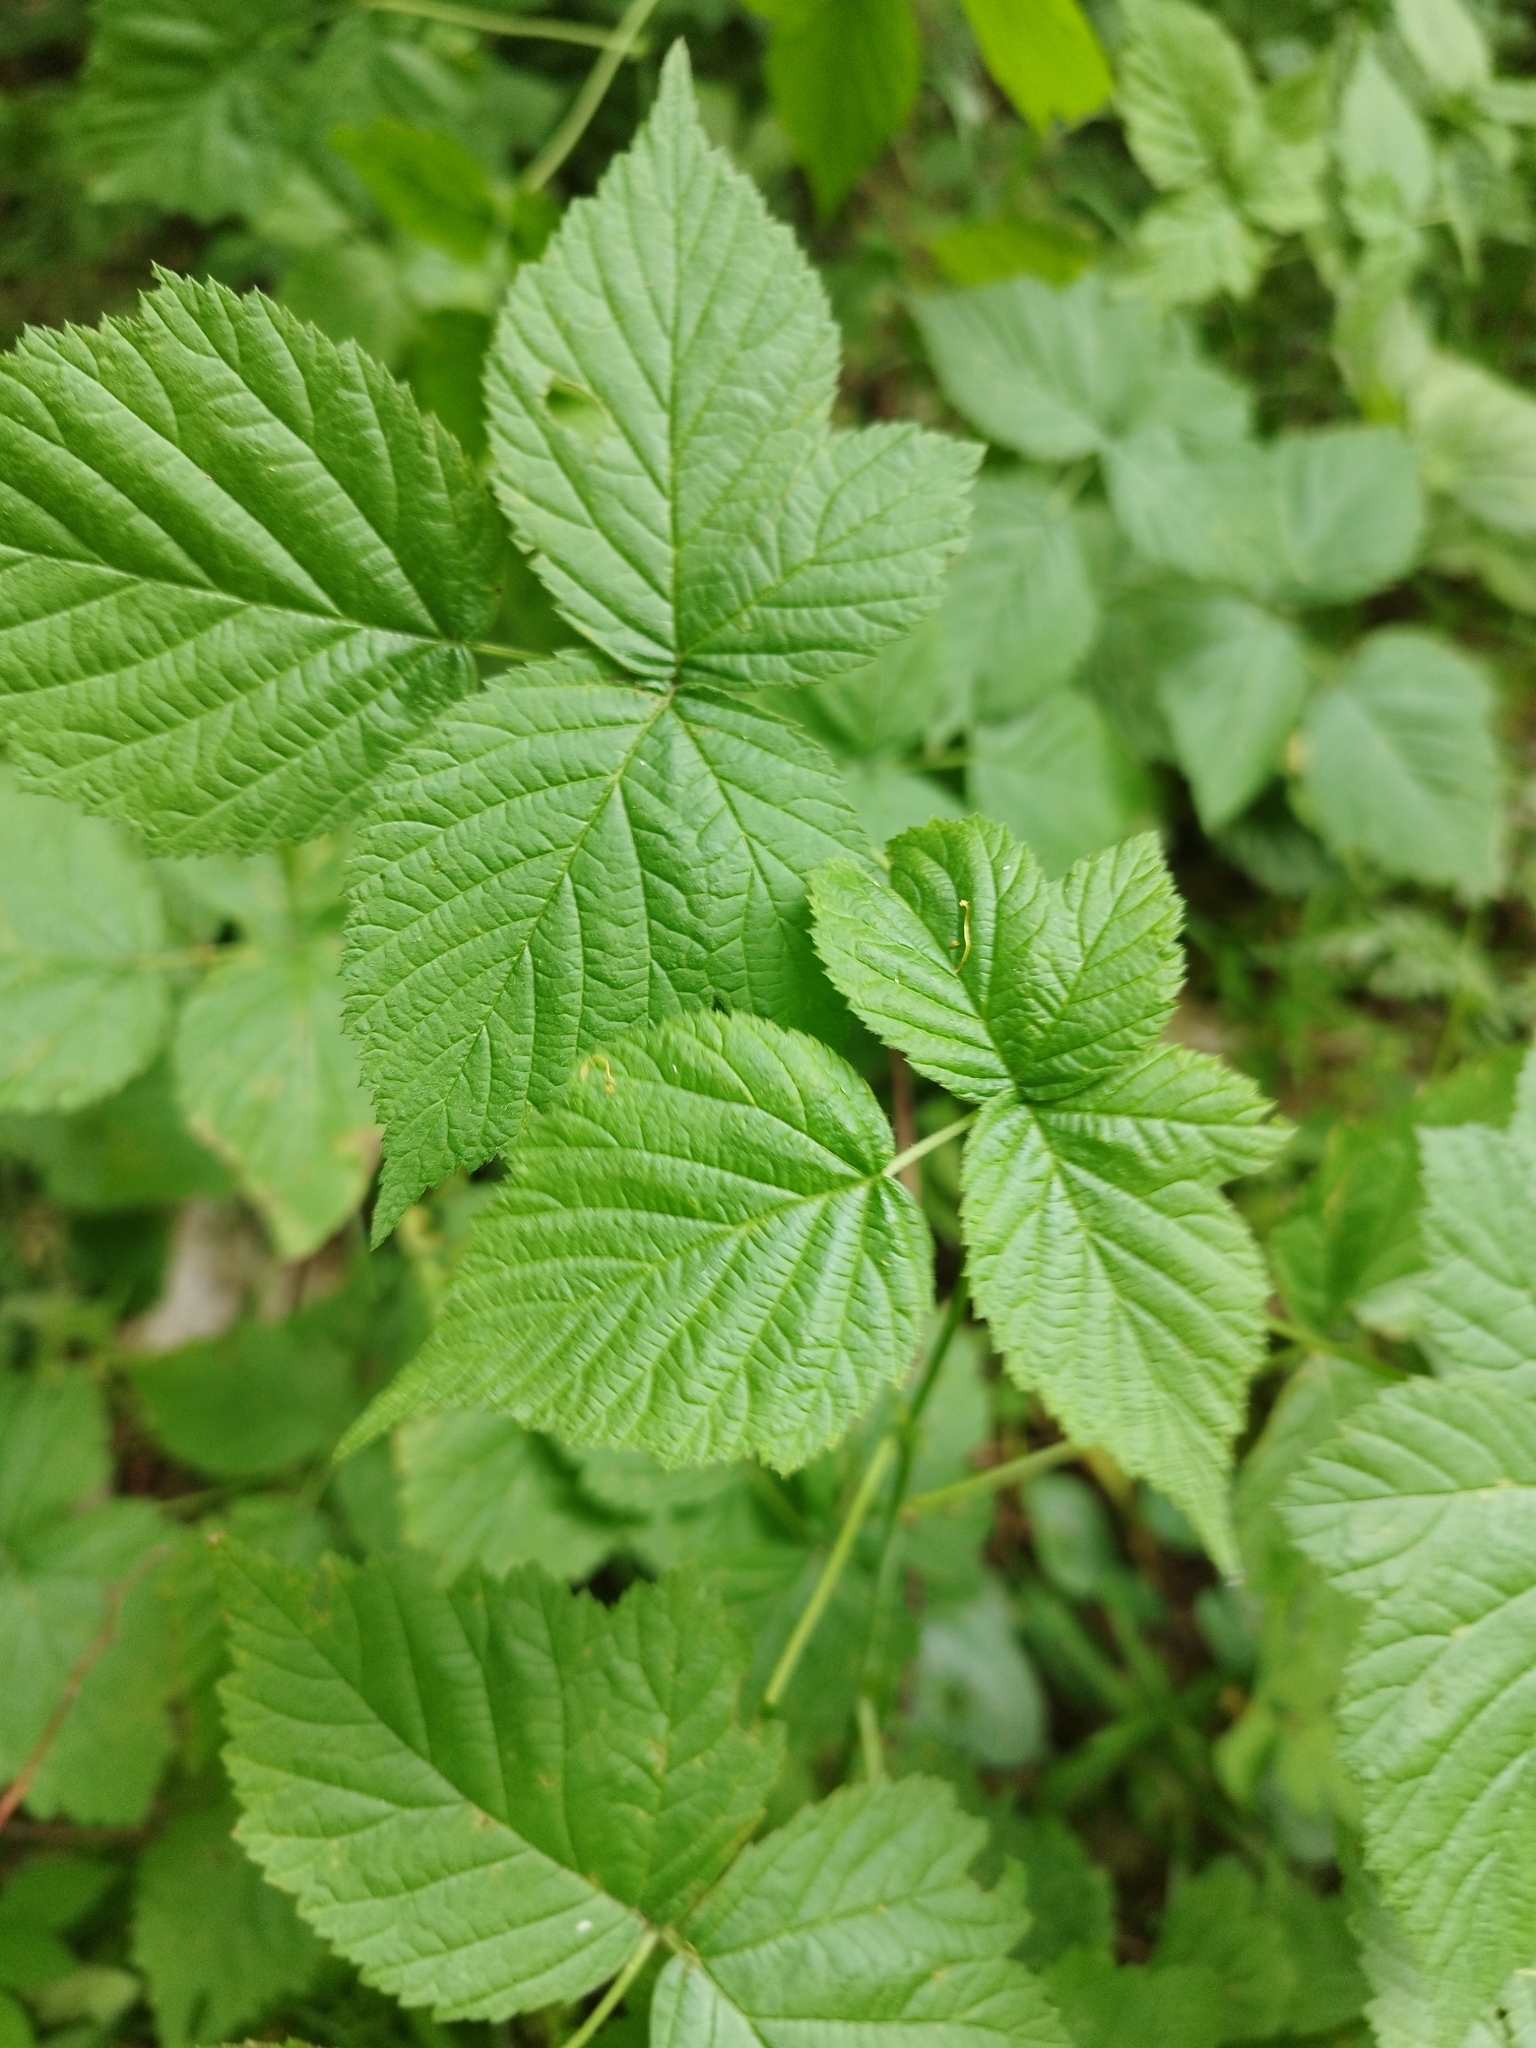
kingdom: Plantae
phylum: Tracheophyta
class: Magnoliopsida
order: Rosales
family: Rosaceae
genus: Rubus
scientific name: Rubus idaeus
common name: Raspberry
